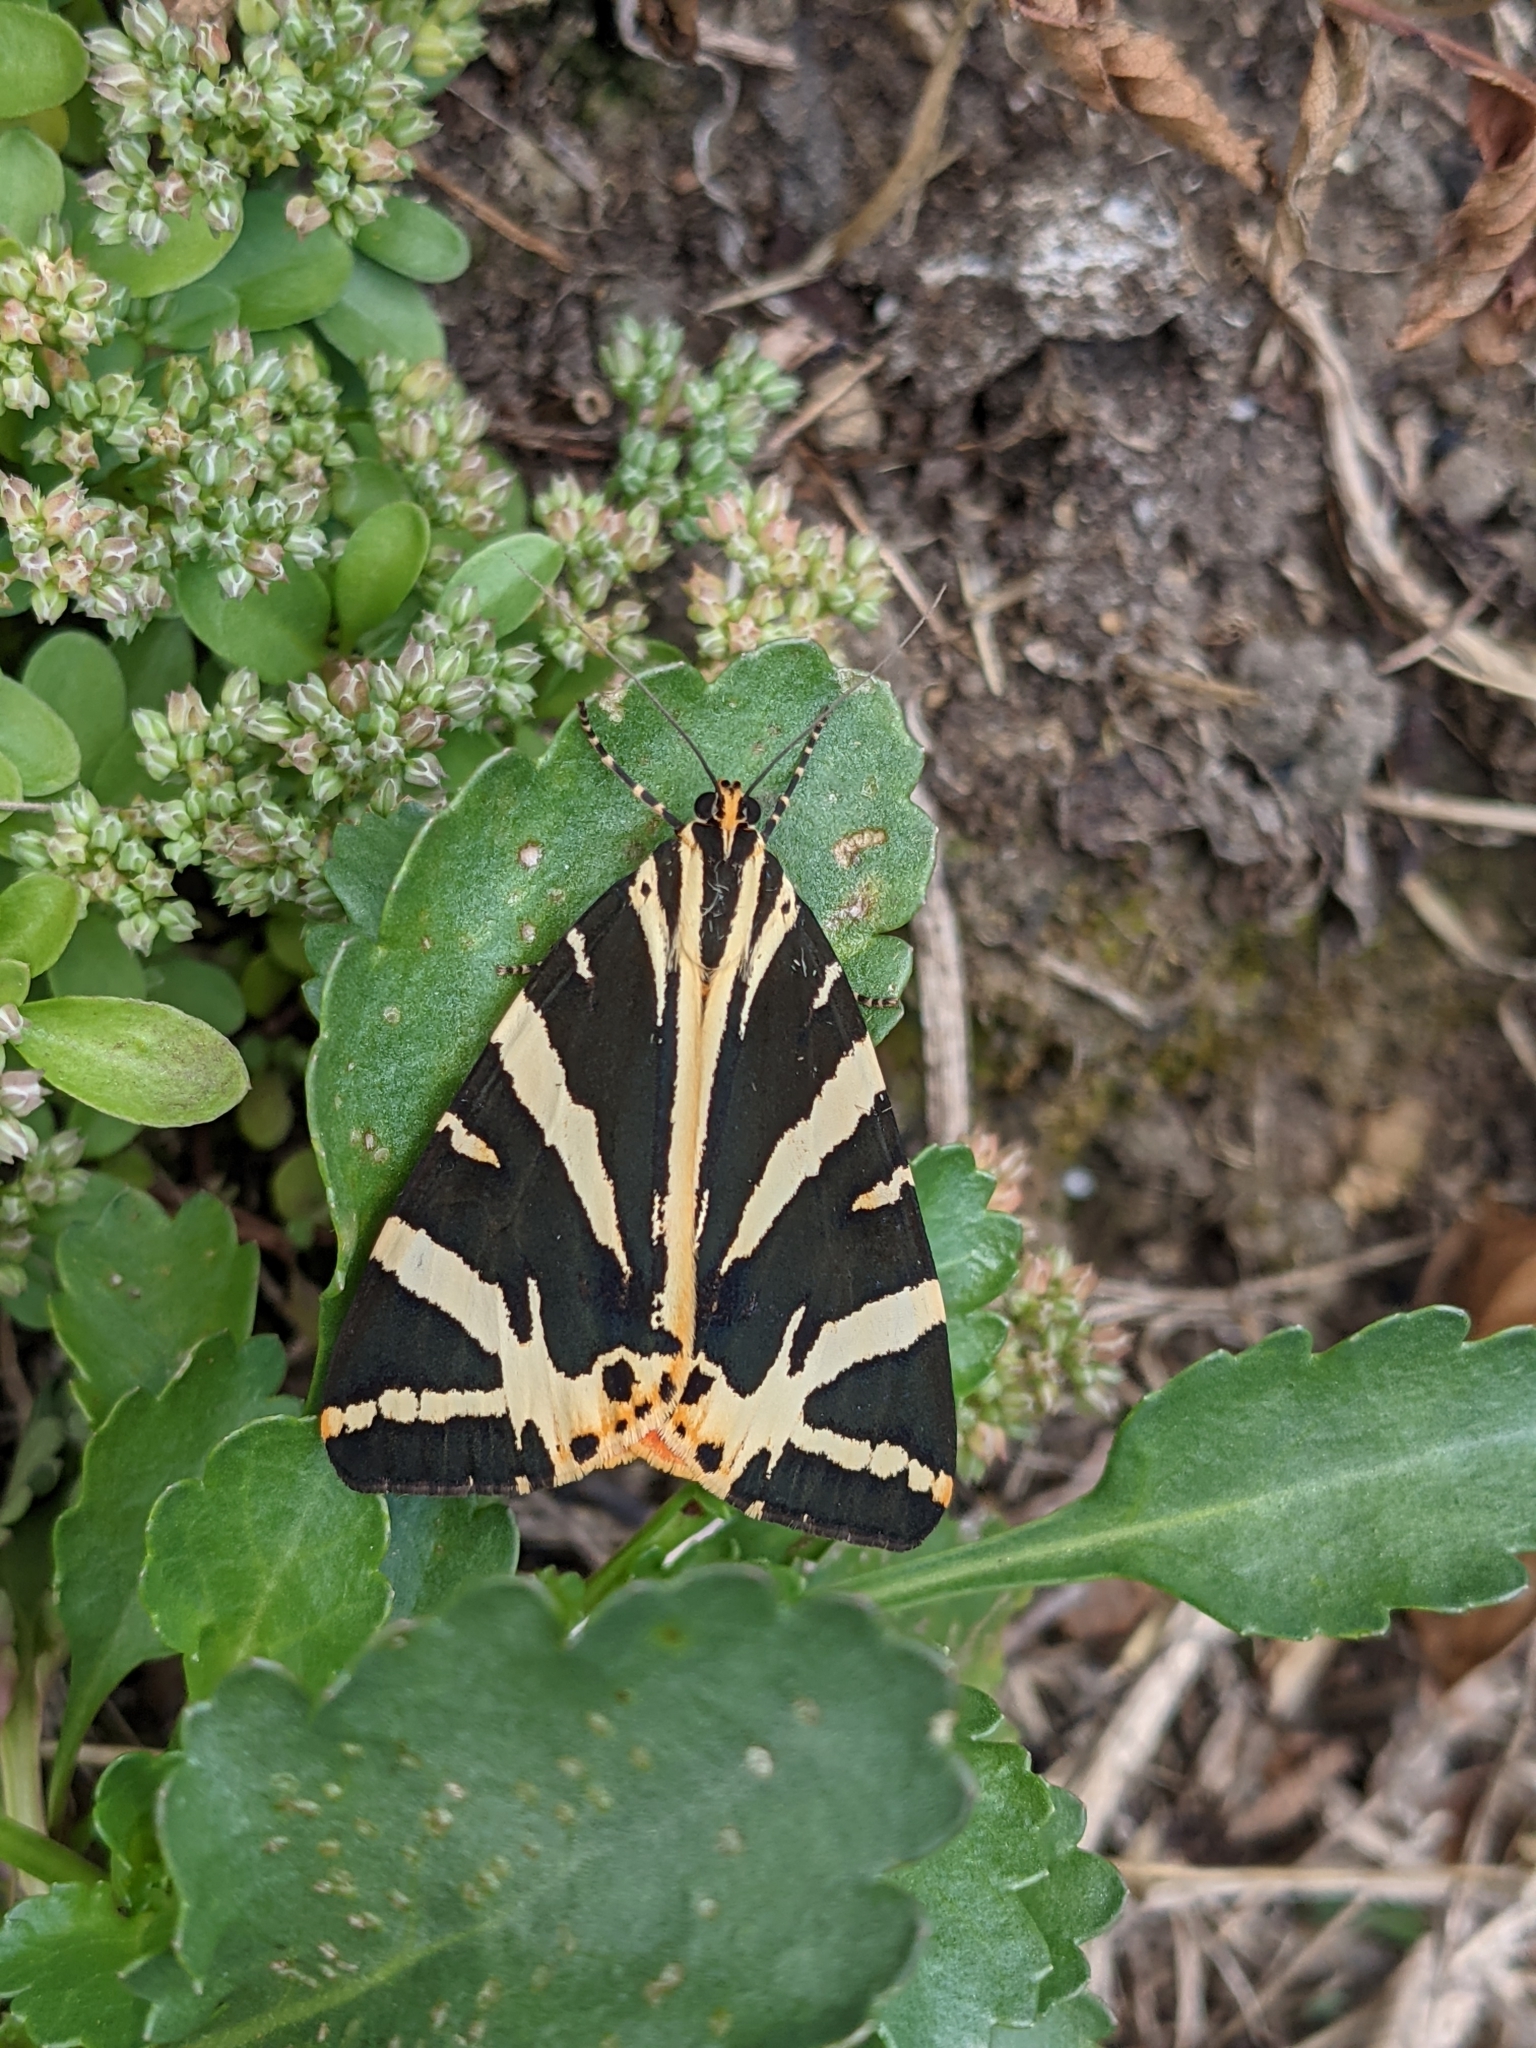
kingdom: Animalia
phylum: Arthropoda
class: Insecta
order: Lepidoptera
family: Erebidae
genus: Euplagia
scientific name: Euplagia quadripunctaria
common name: Jersey tiger
